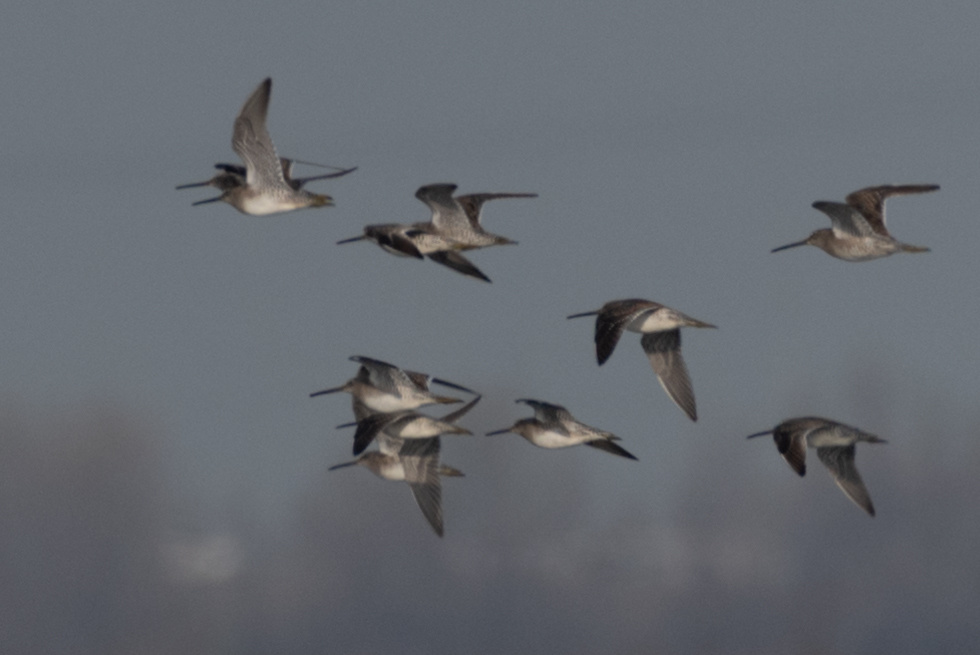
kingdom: Animalia
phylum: Chordata
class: Aves
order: Charadriiformes
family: Scolopacidae
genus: Limnodromus
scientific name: Limnodromus scolopaceus
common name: Long-billed dowitcher
